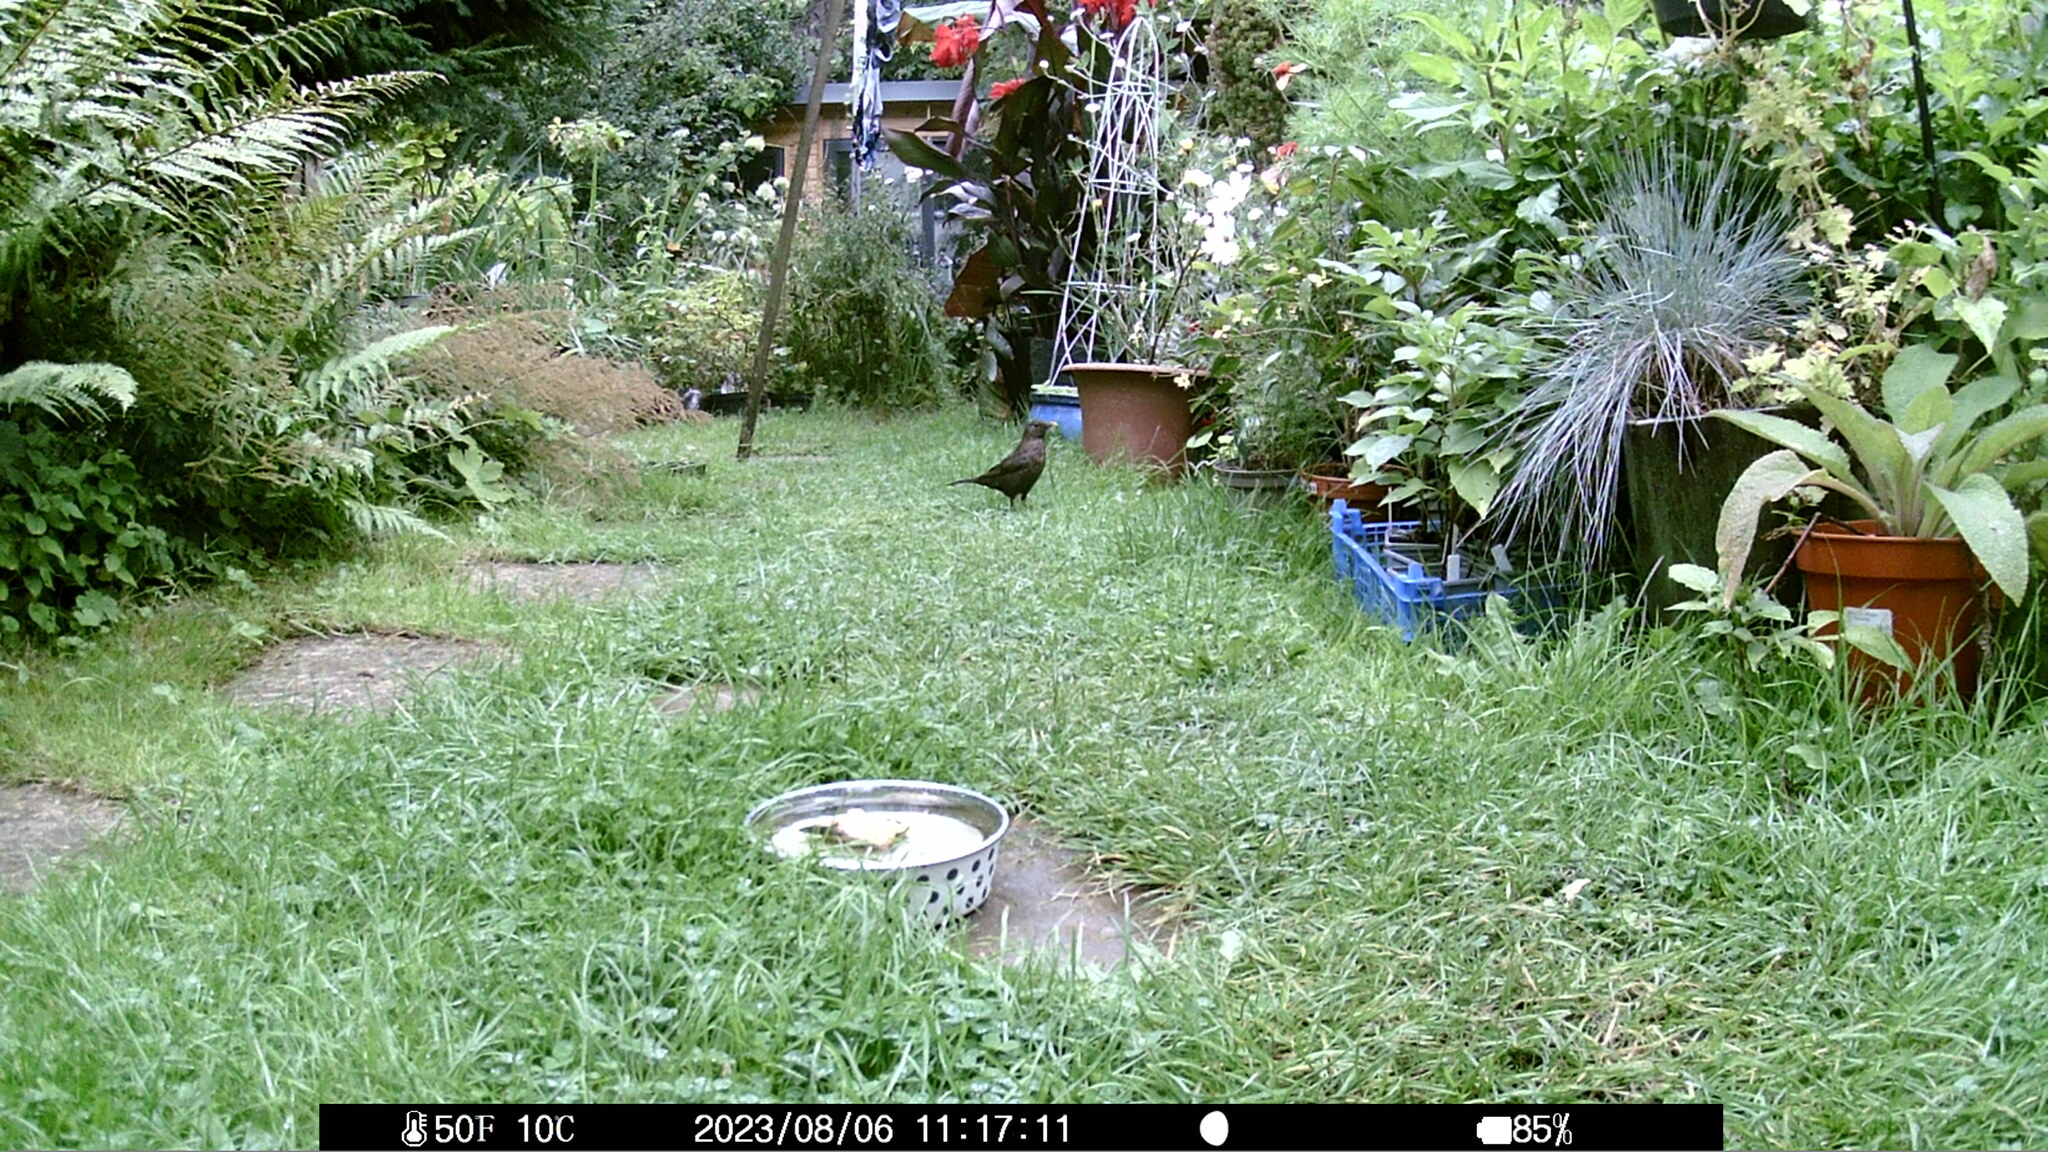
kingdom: Animalia
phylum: Chordata
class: Aves
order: Passeriformes
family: Turdidae
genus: Turdus
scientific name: Turdus merula
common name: Common blackbird
